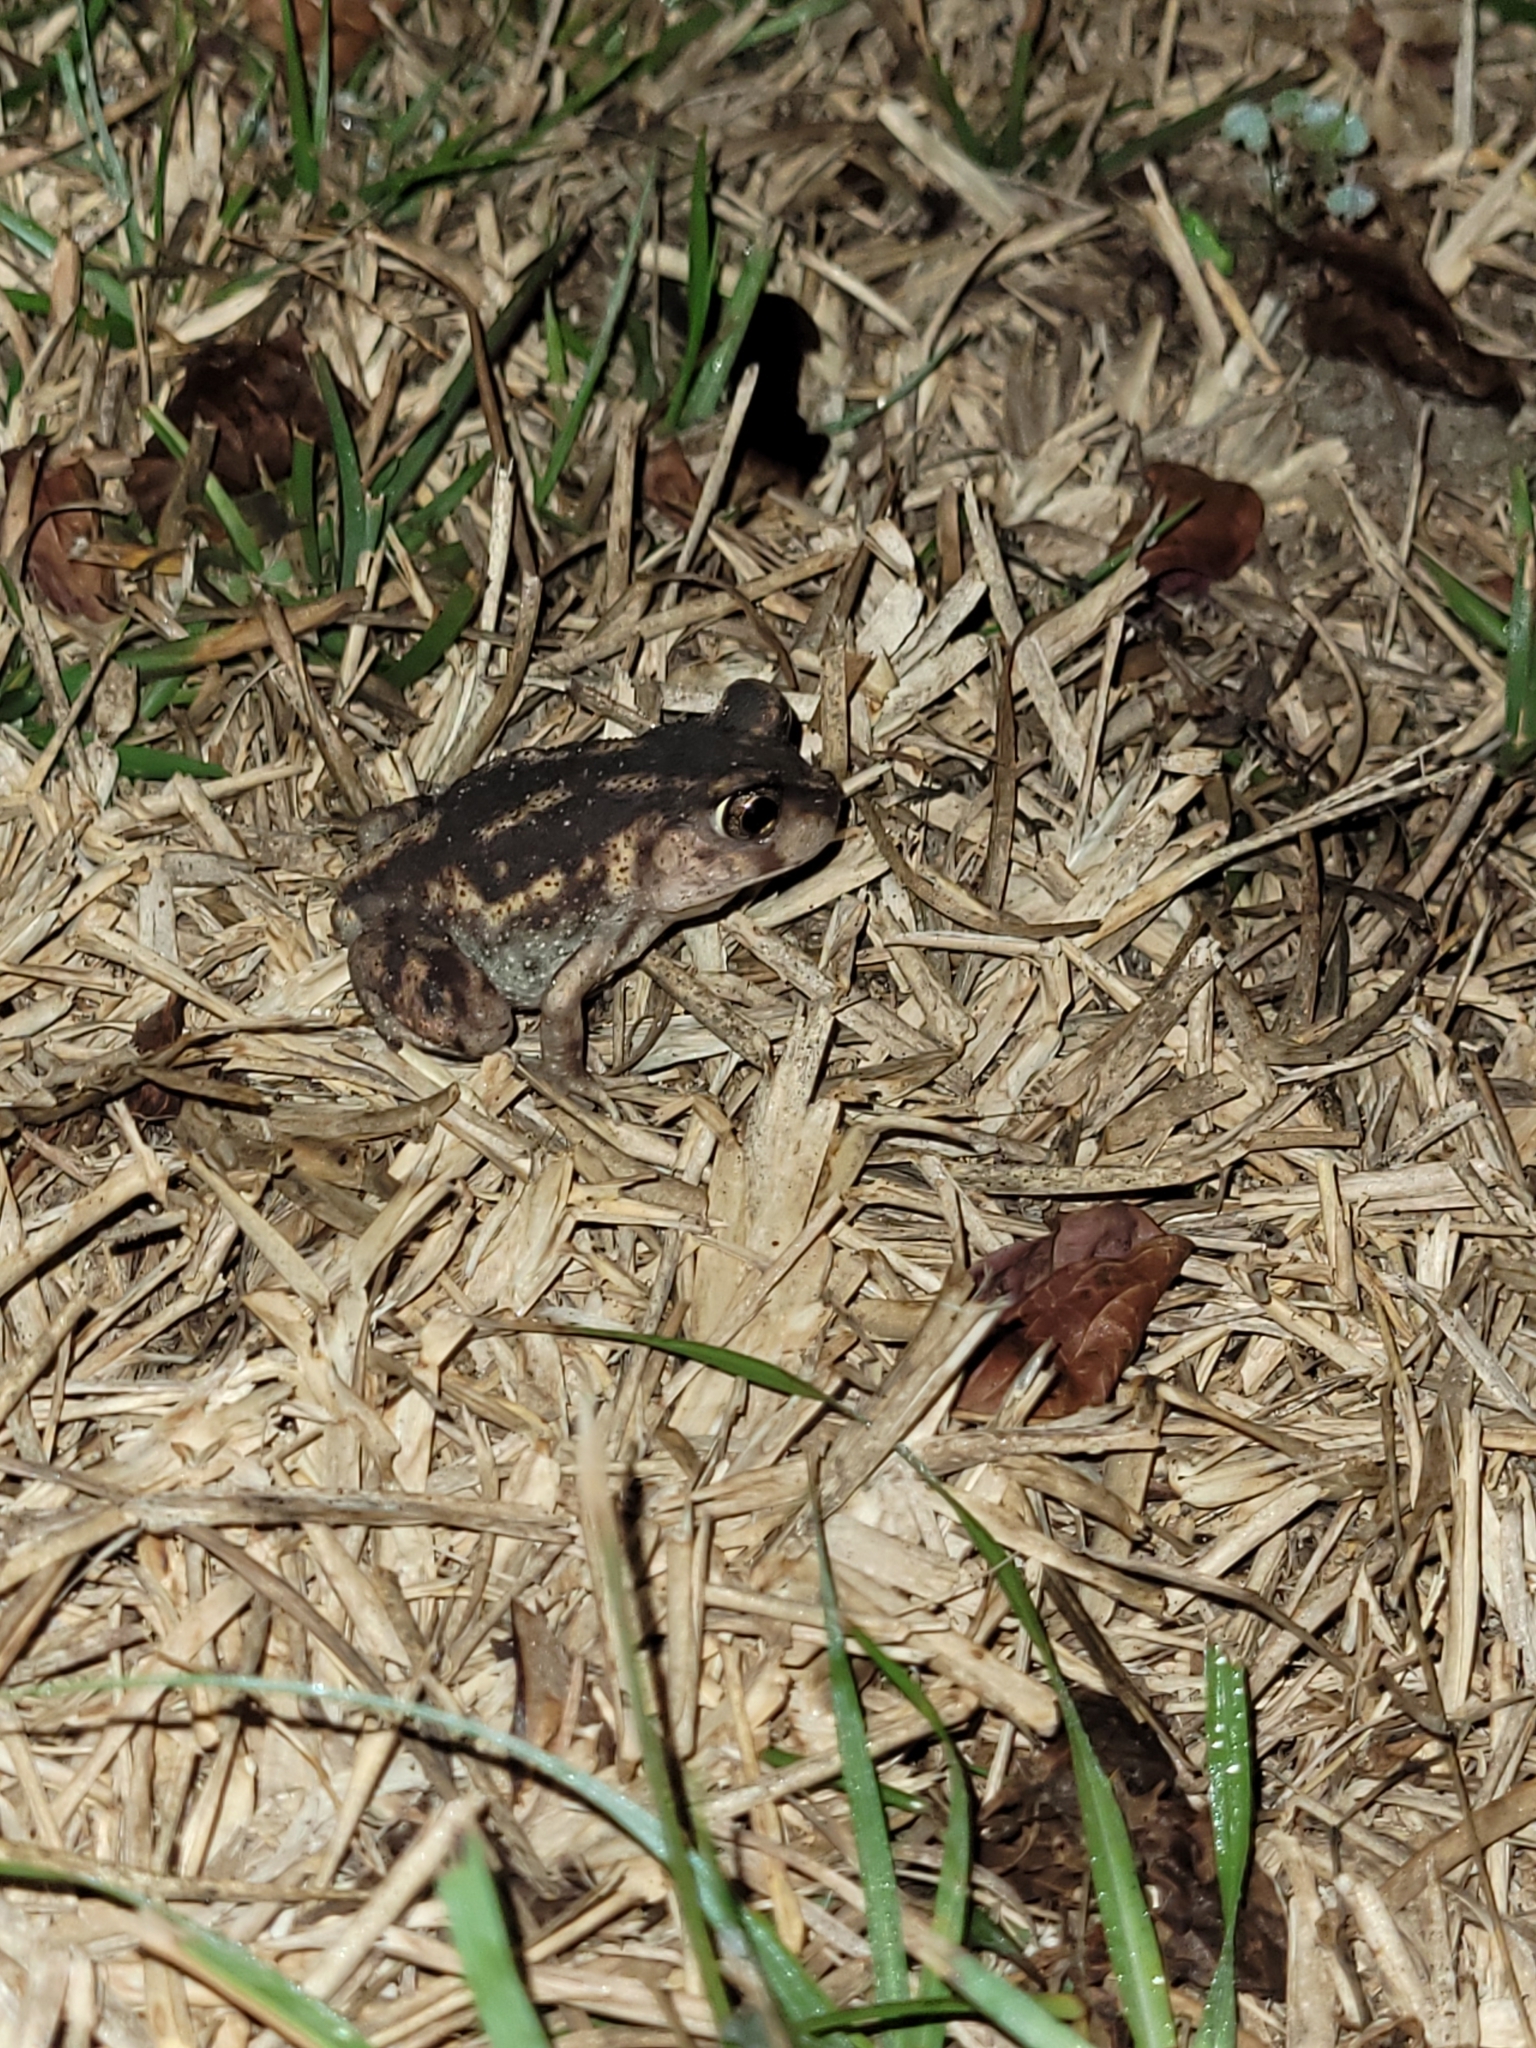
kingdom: Animalia
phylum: Chordata
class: Amphibia
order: Anura
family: Scaphiopodidae
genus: Scaphiopus
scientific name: Scaphiopus holbrookii
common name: Eastern spadefoot toad
